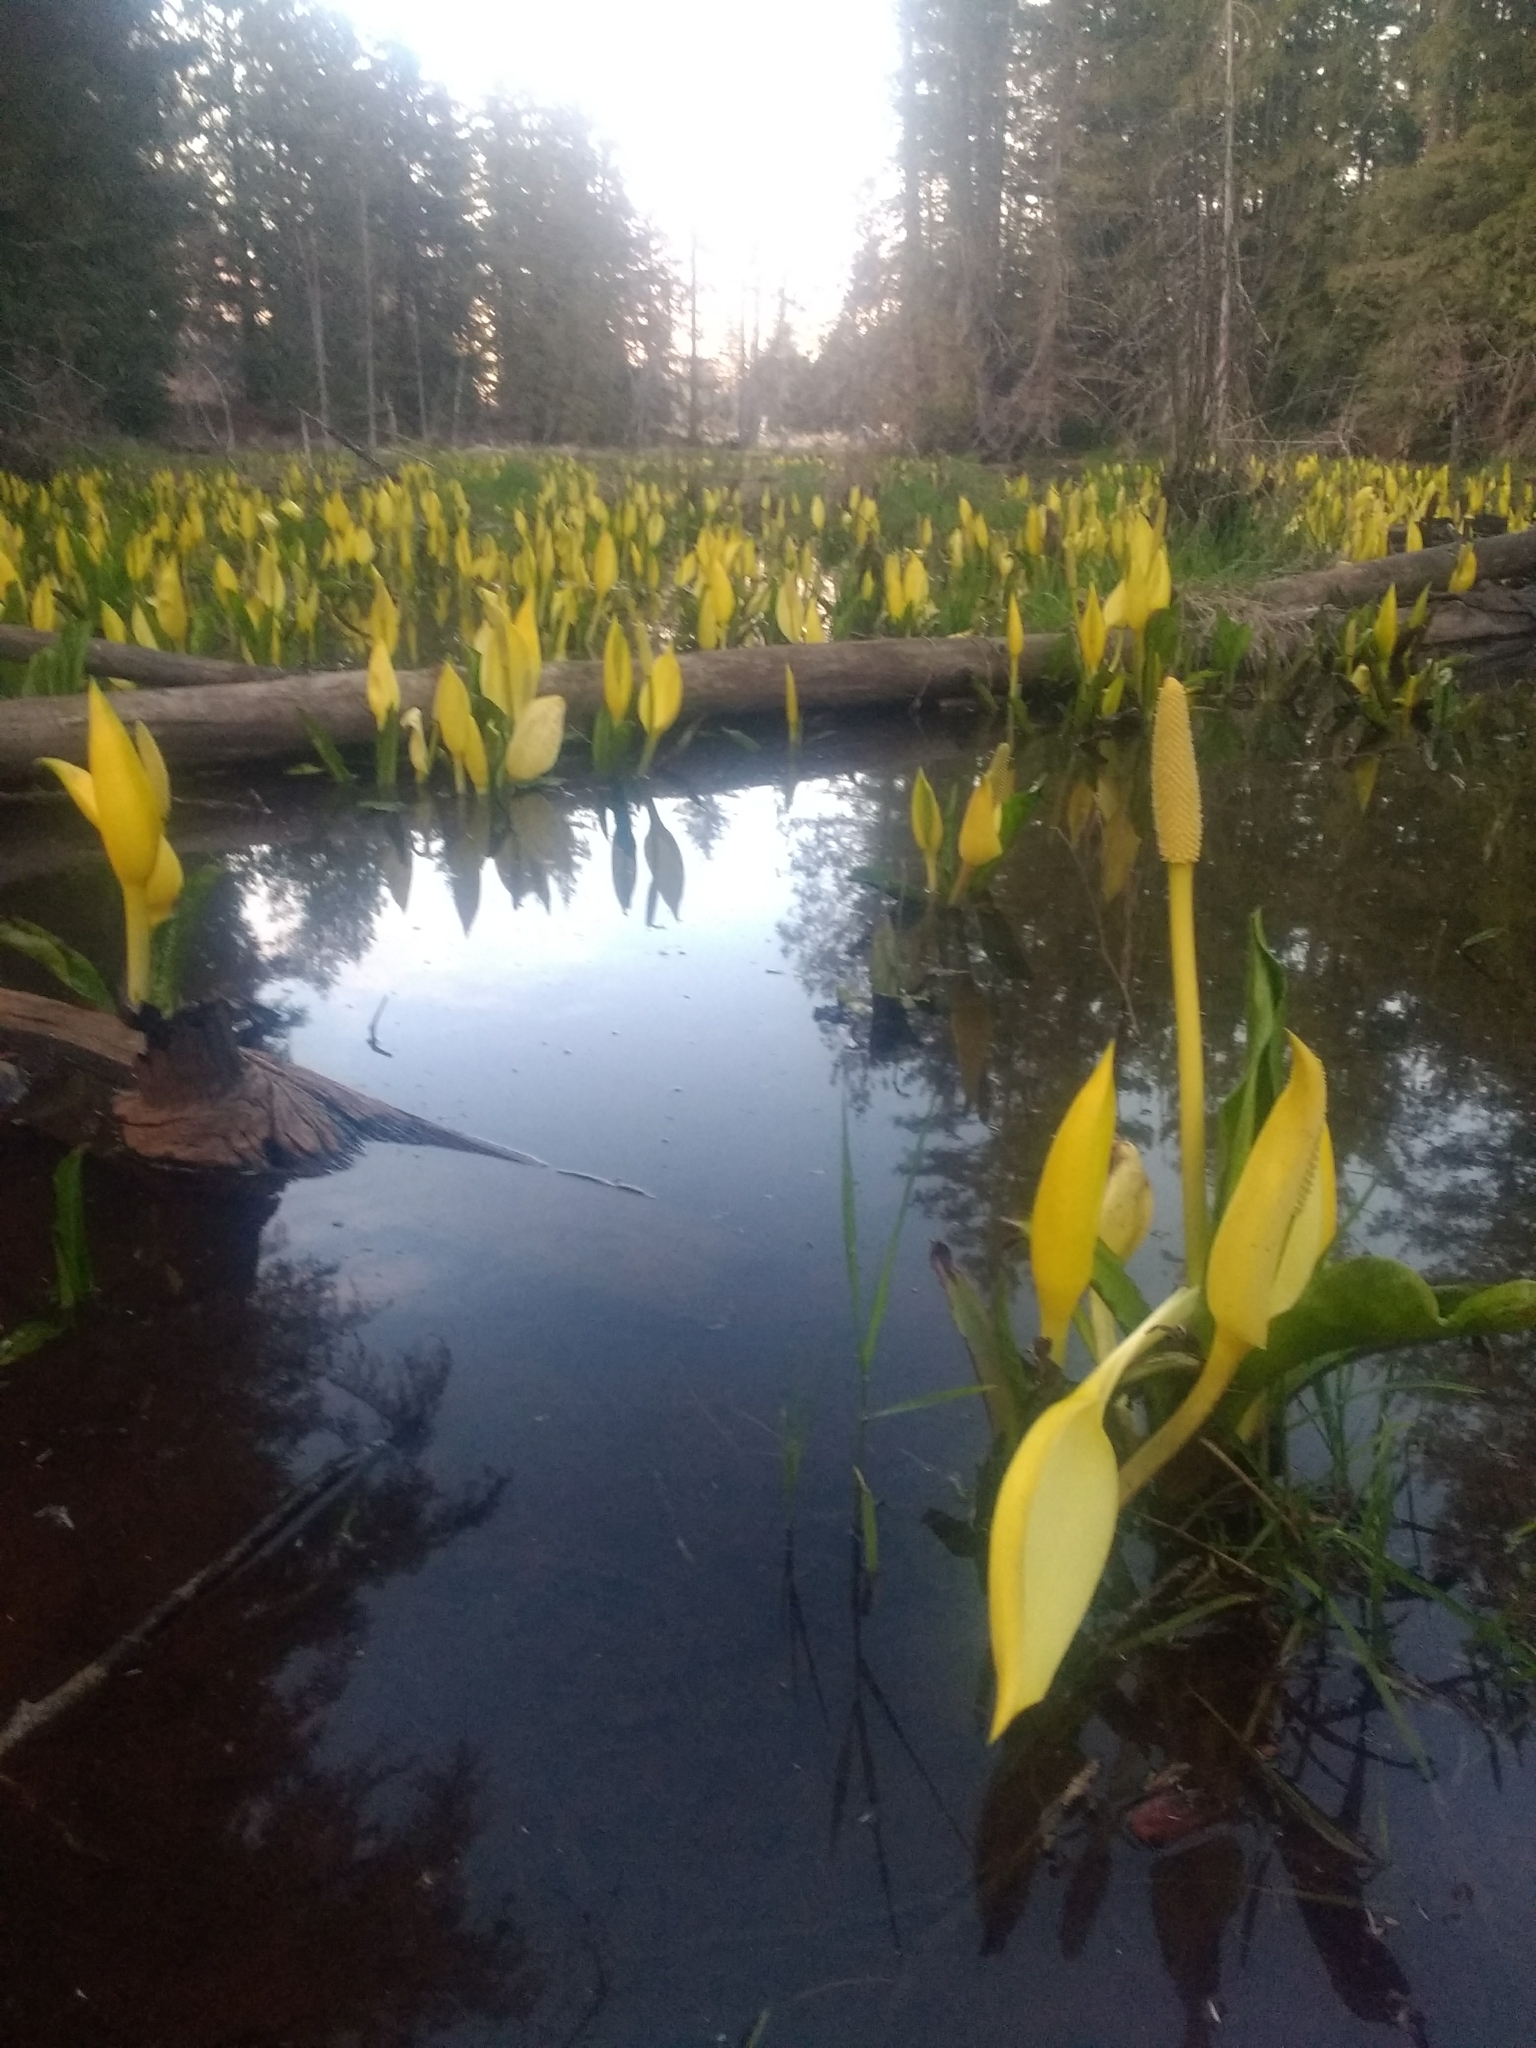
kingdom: Plantae
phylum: Tracheophyta
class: Liliopsida
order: Alismatales
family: Araceae
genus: Lysichiton
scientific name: Lysichiton americanus
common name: American skunk cabbage
